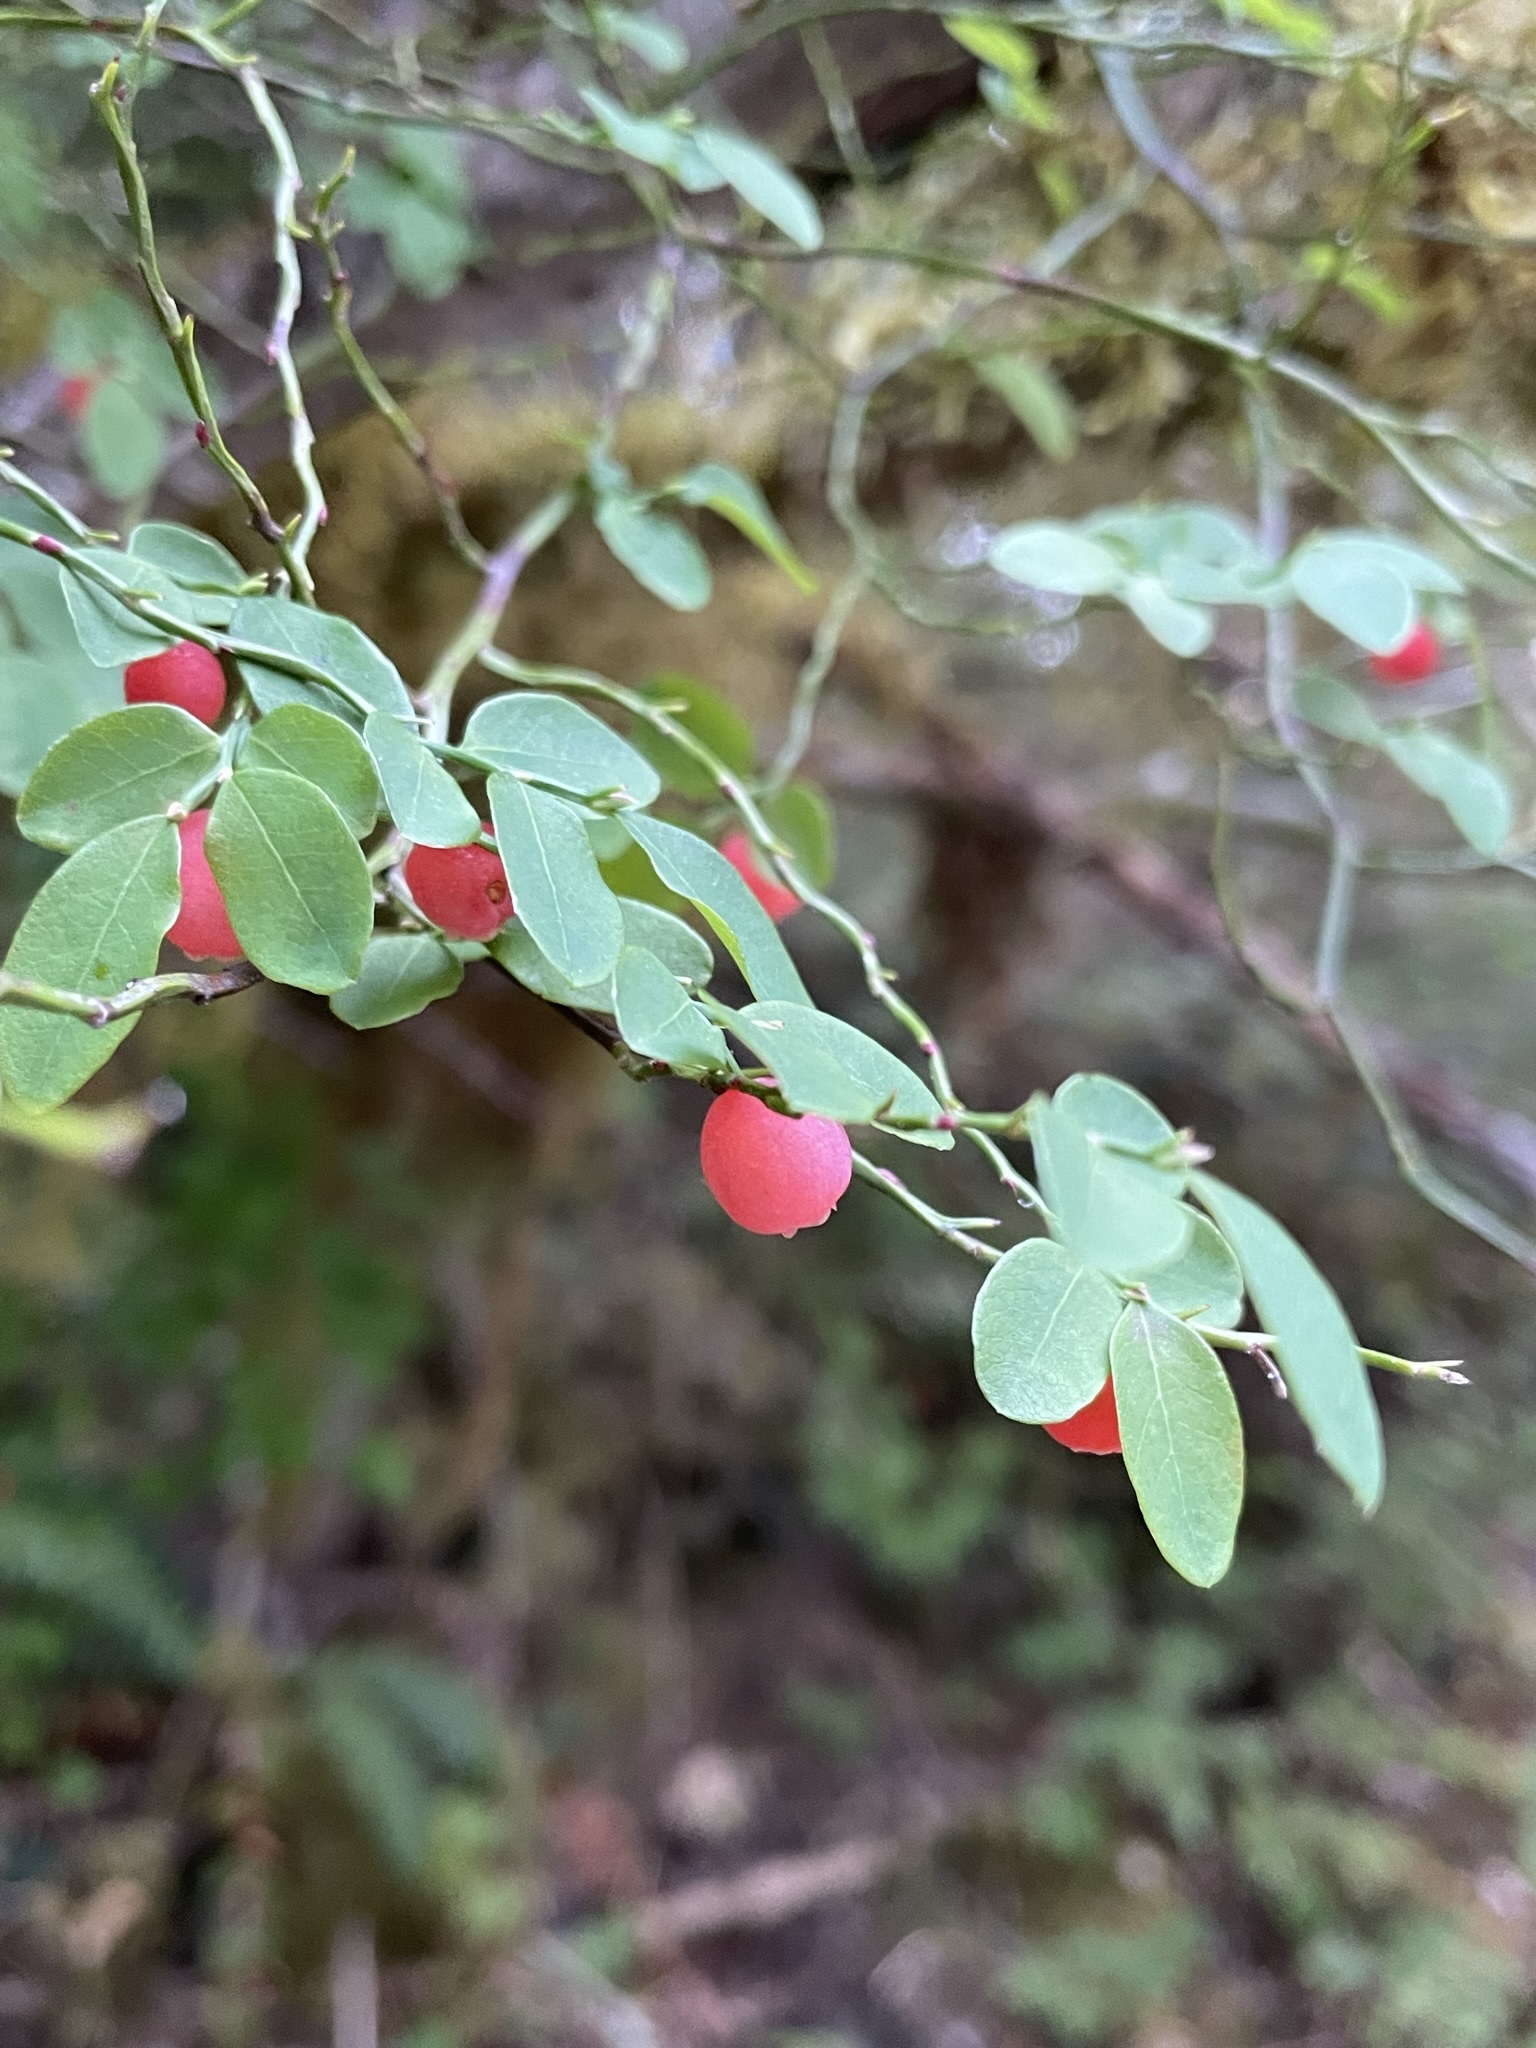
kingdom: Plantae
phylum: Tracheophyta
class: Magnoliopsida
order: Ericales
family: Ericaceae
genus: Vaccinium
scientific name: Vaccinium parvifolium
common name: Red-huckleberry
